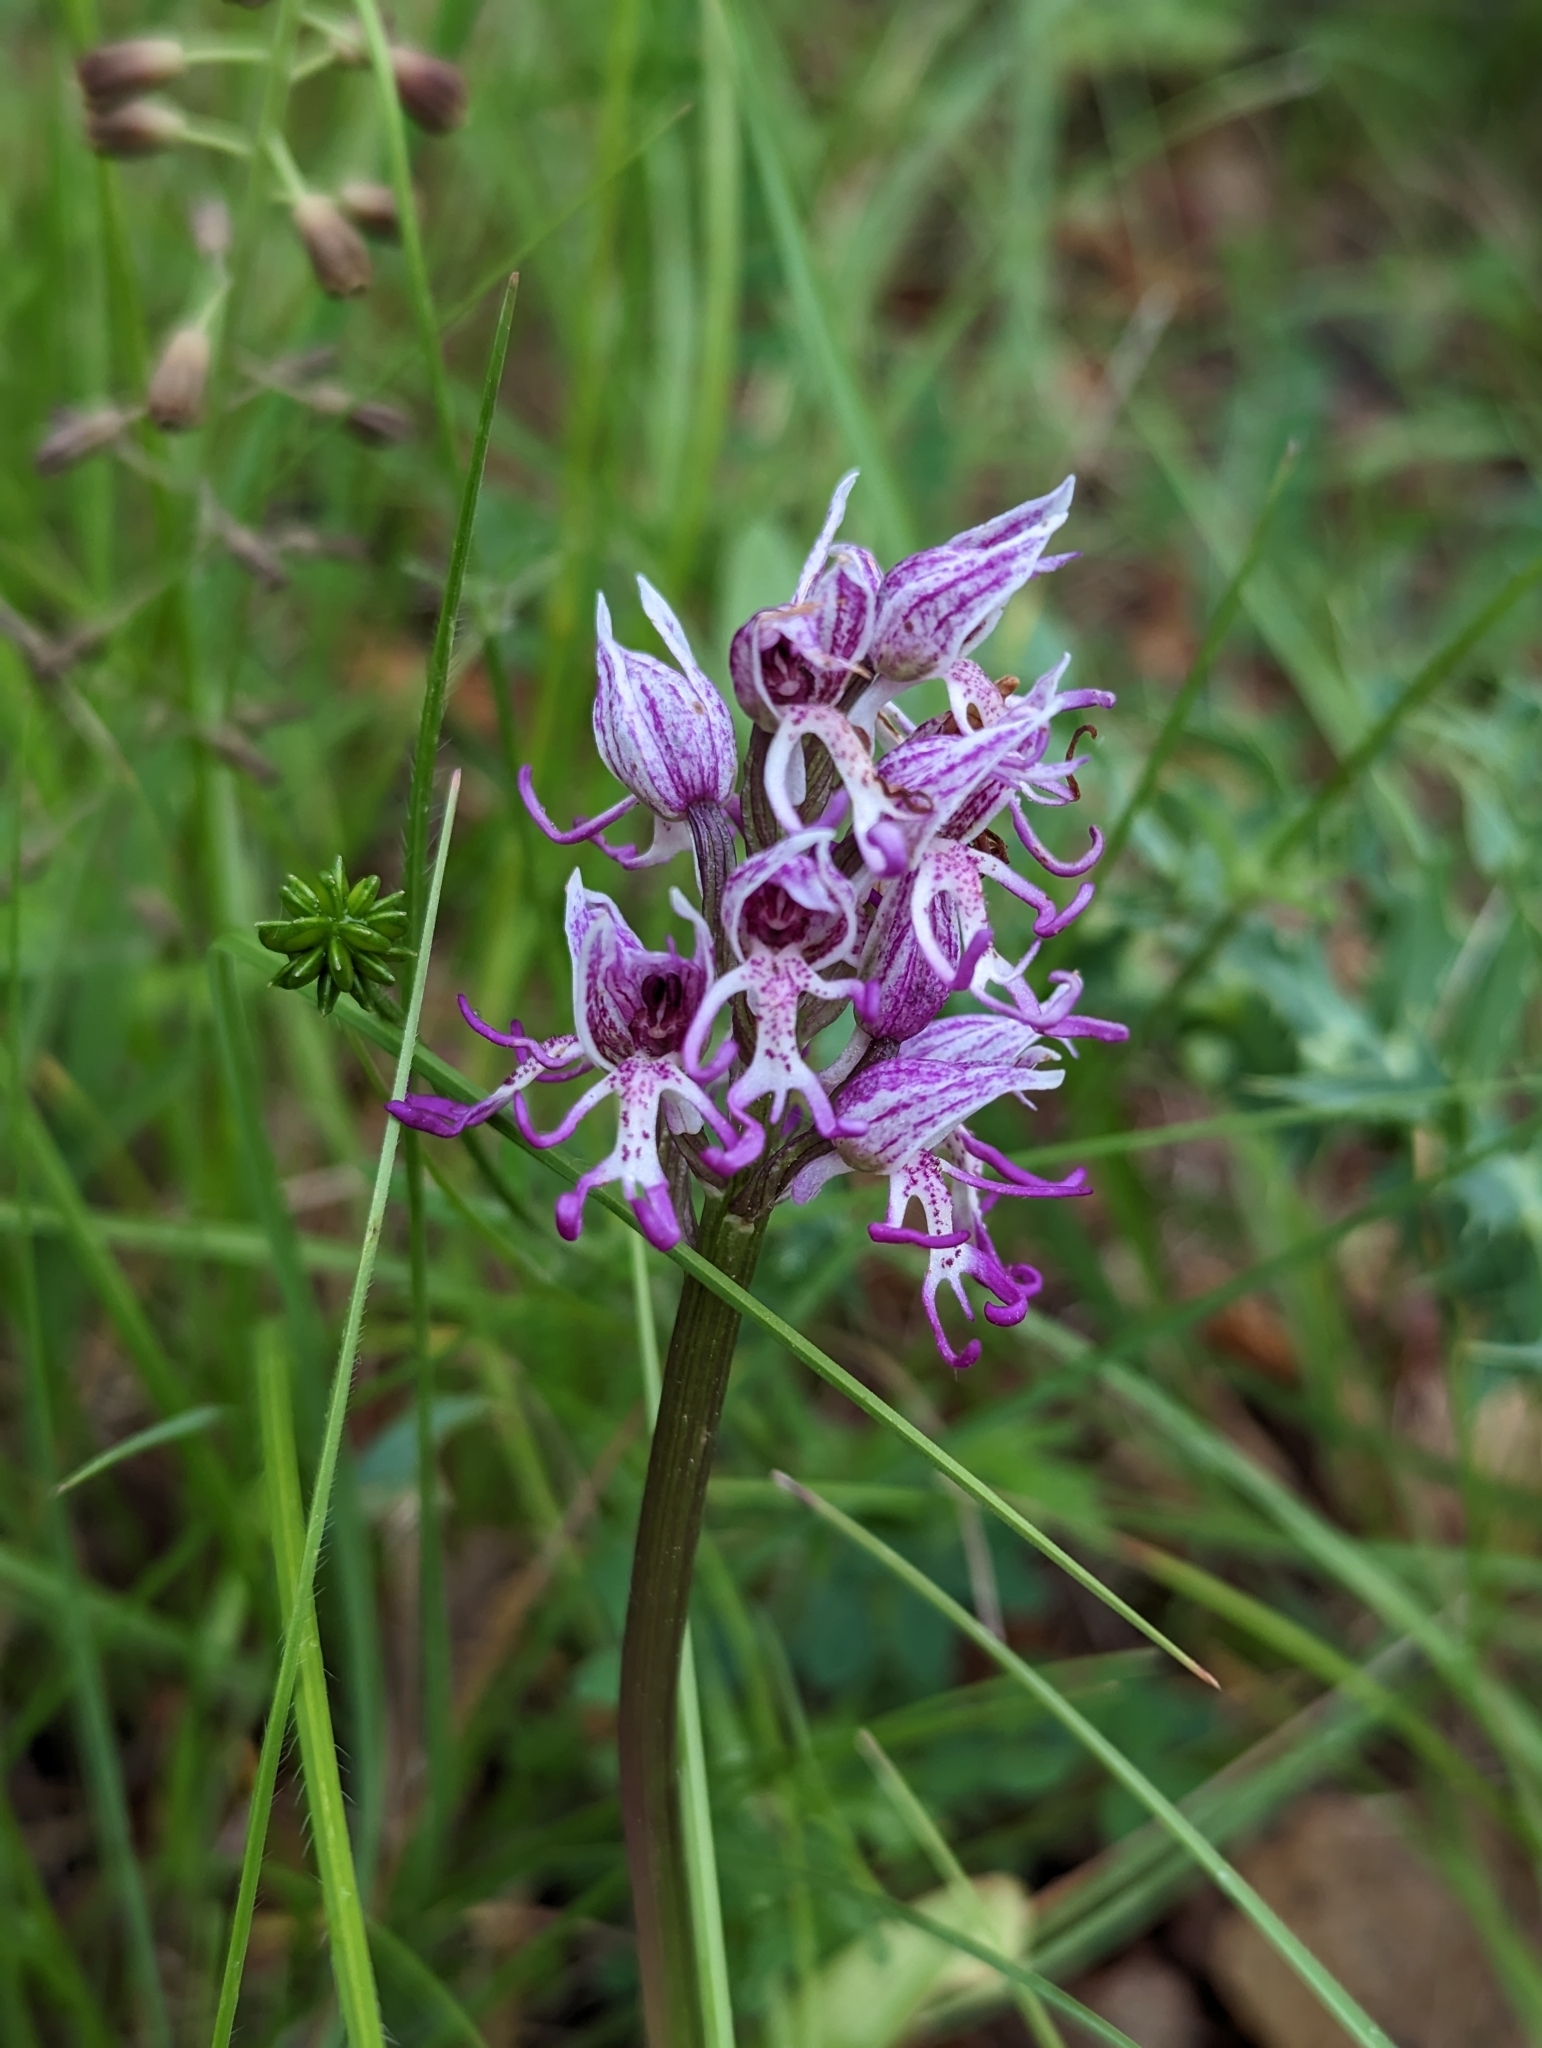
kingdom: Plantae
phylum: Tracheophyta
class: Liliopsida
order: Asparagales
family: Orchidaceae
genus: Orchis
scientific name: Orchis simia
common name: Monkey orchid
